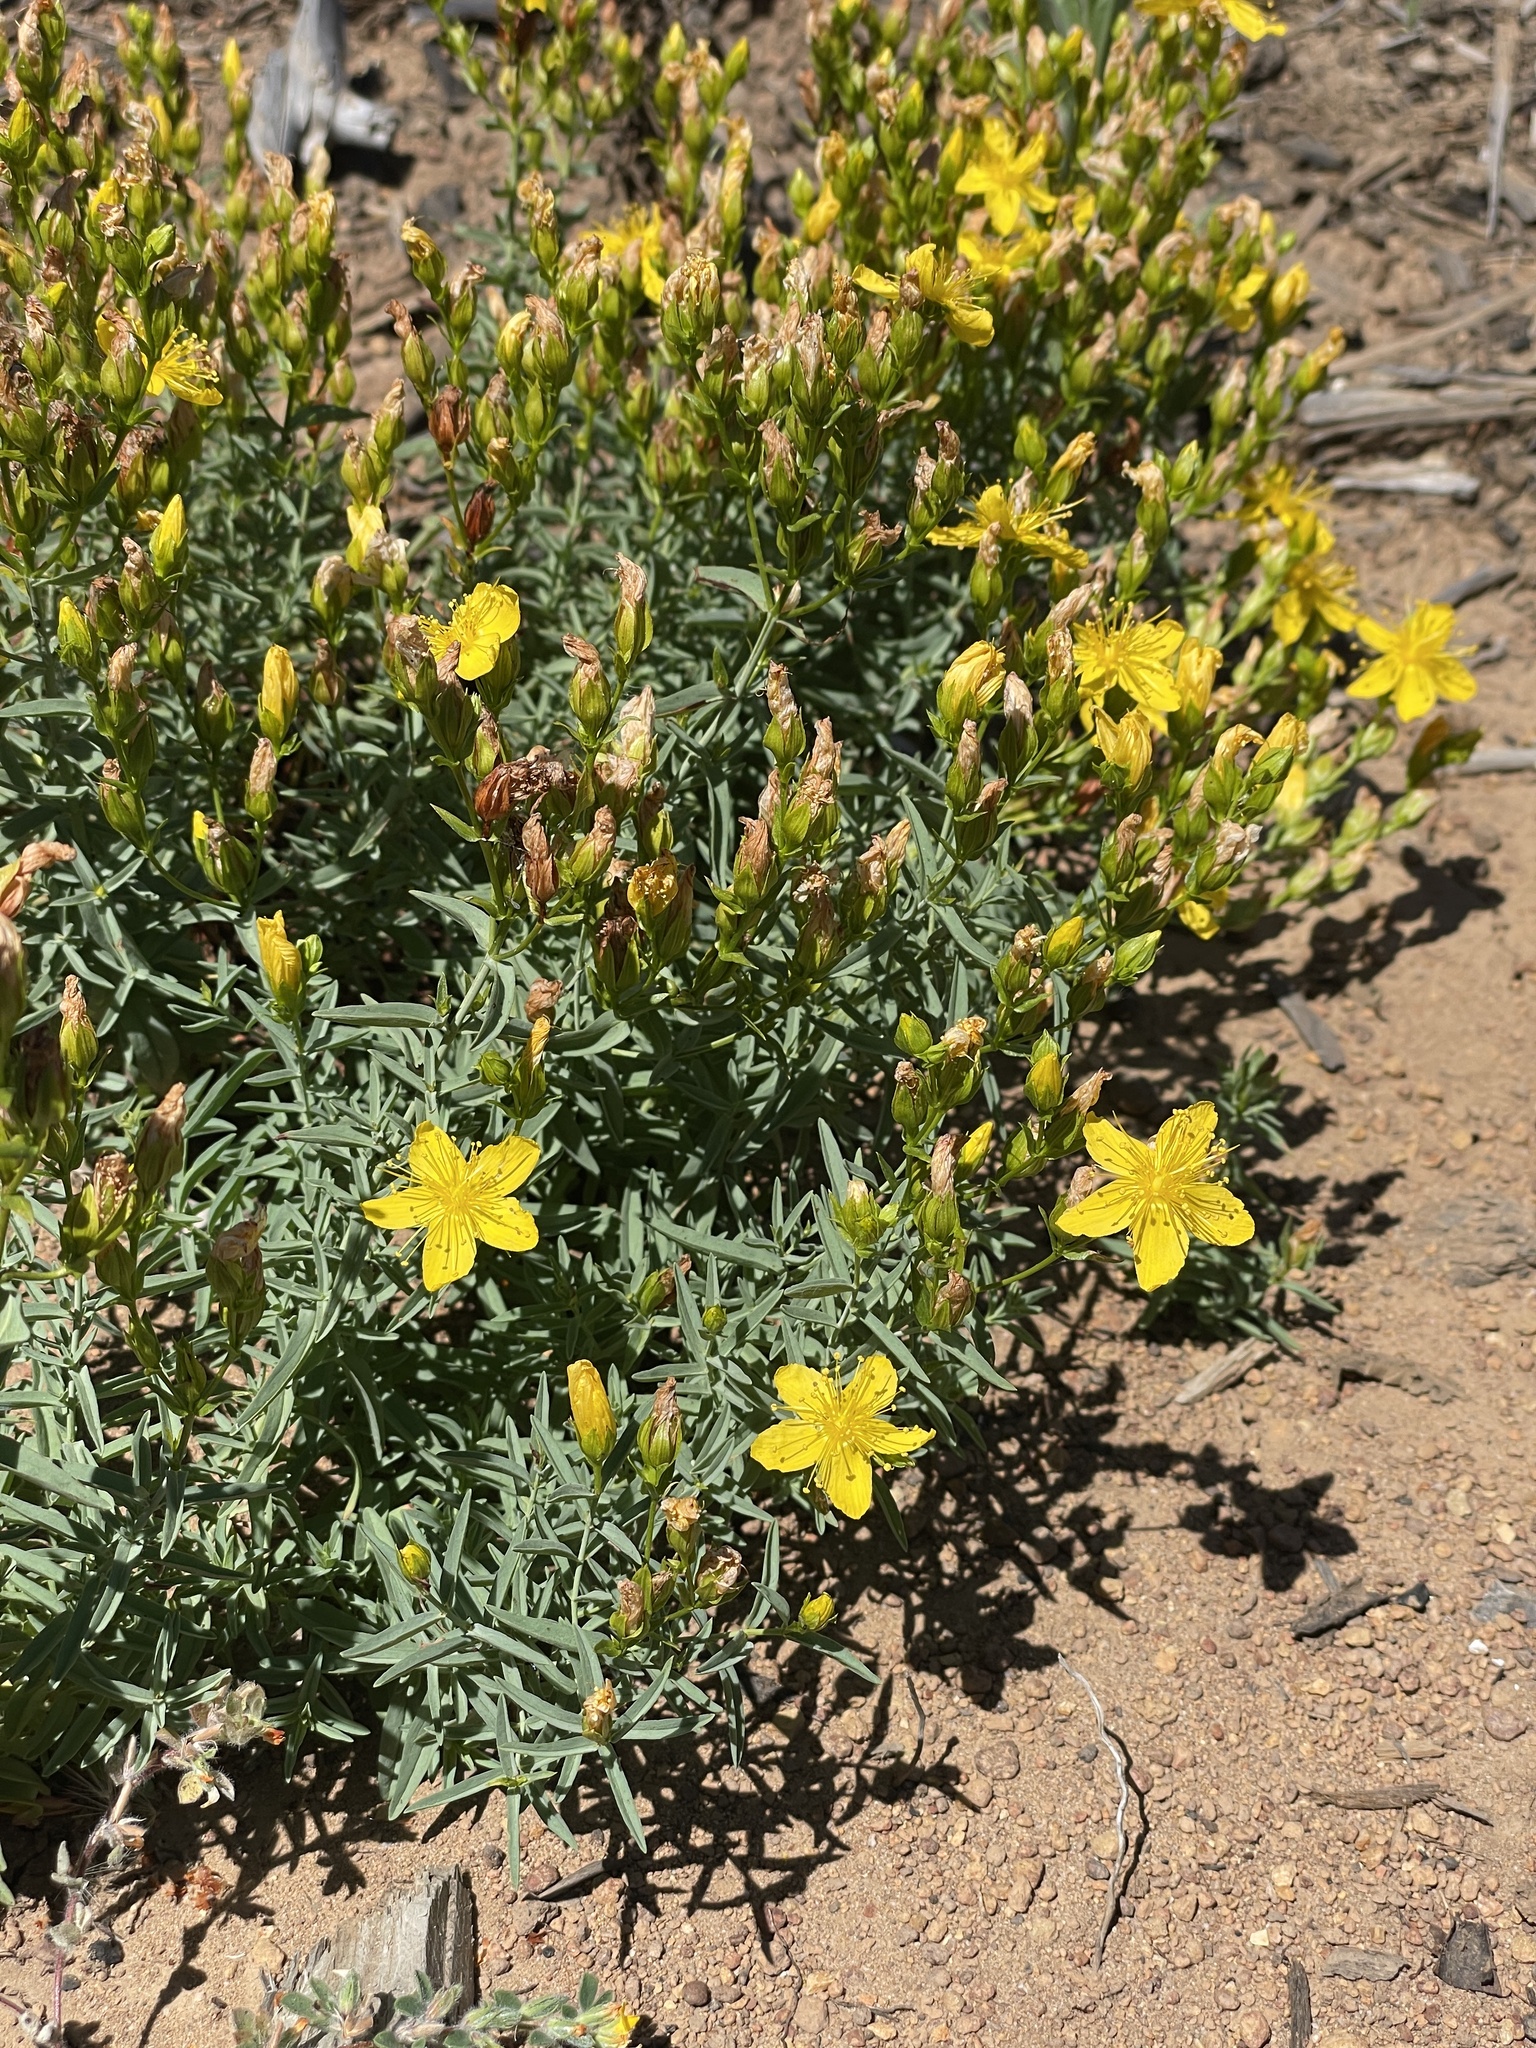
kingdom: Plantae
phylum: Tracheophyta
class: Magnoliopsida
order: Malpighiales
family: Hypericaceae
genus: Hypericum
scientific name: Hypericum concinnum
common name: Gold-wire
